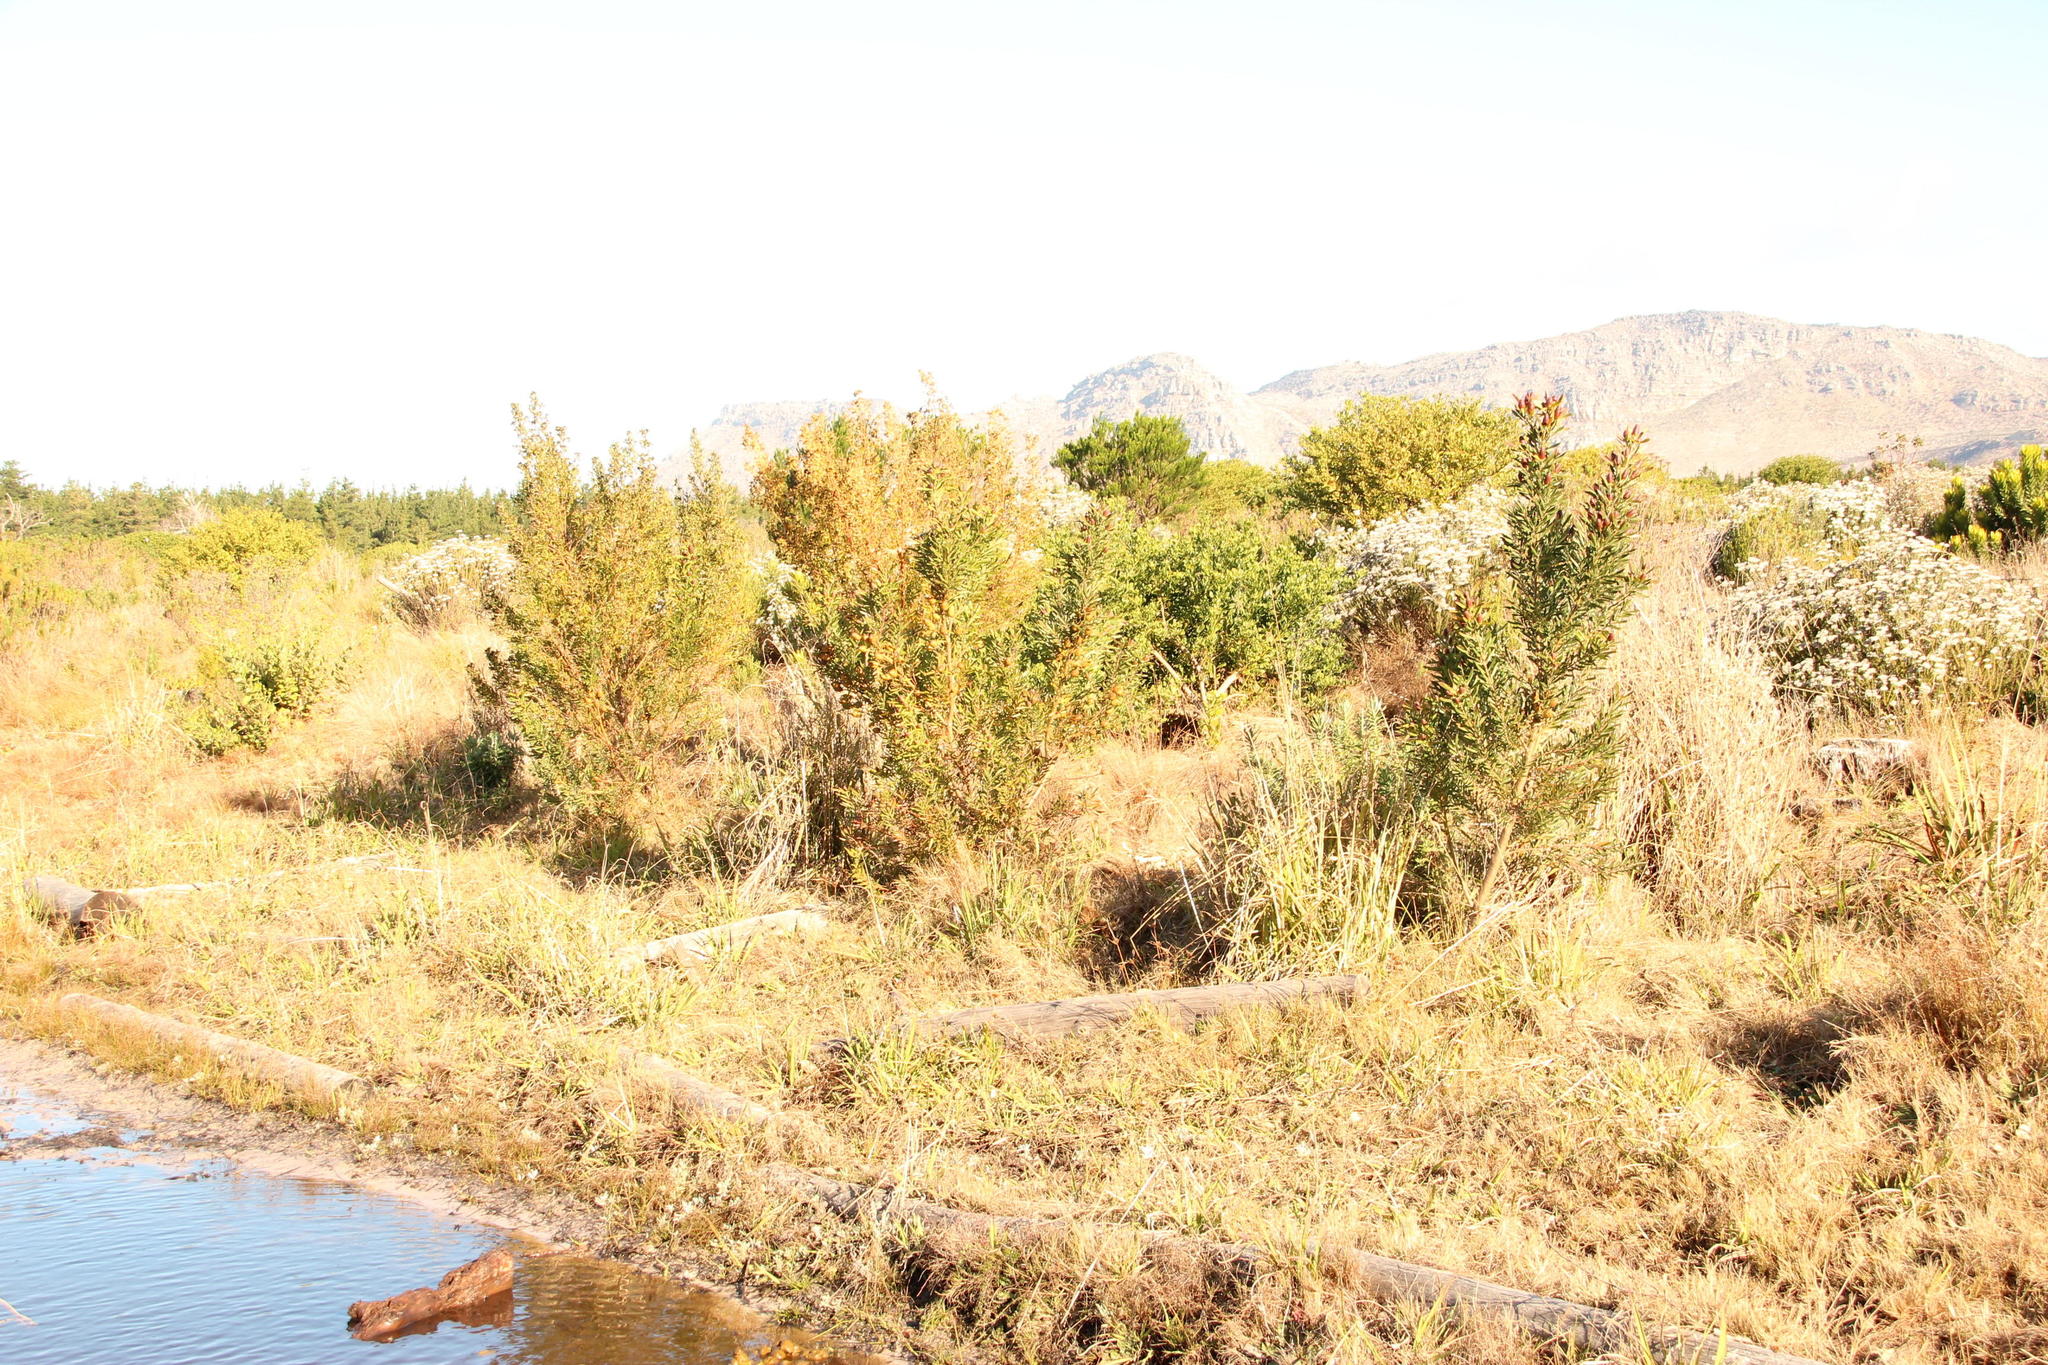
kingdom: Plantae
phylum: Tracheophyta
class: Magnoliopsida
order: Proteales
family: Proteaceae
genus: Leucadendron
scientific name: Leucadendron macowanii
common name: Acacia-leaf conebush
